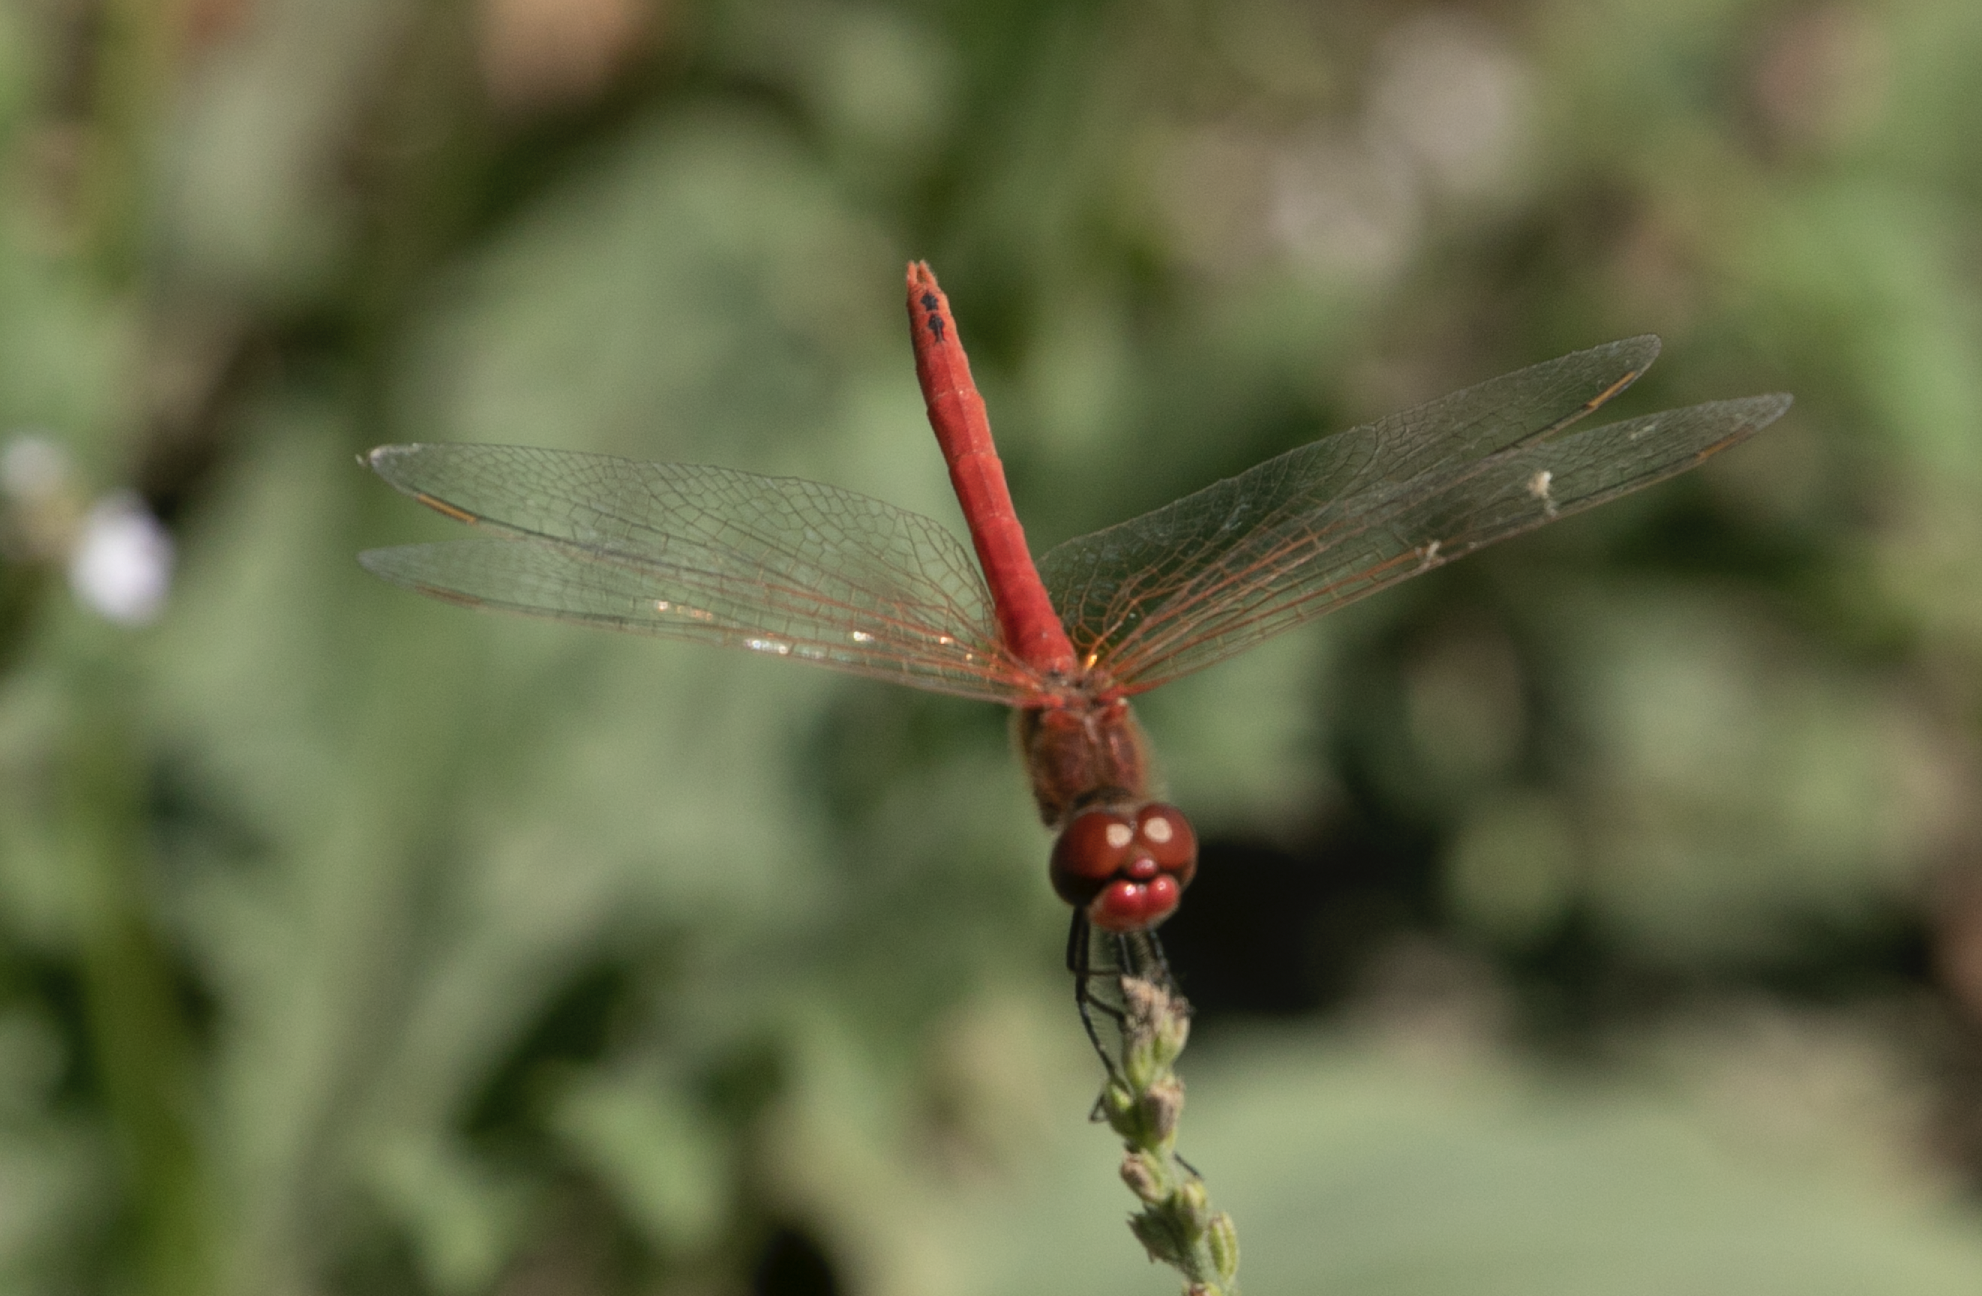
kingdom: Animalia
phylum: Arthropoda
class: Insecta
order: Odonata
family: Libellulidae
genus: Sympetrum
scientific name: Sympetrum fonscolombii
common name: Red-veined darter
